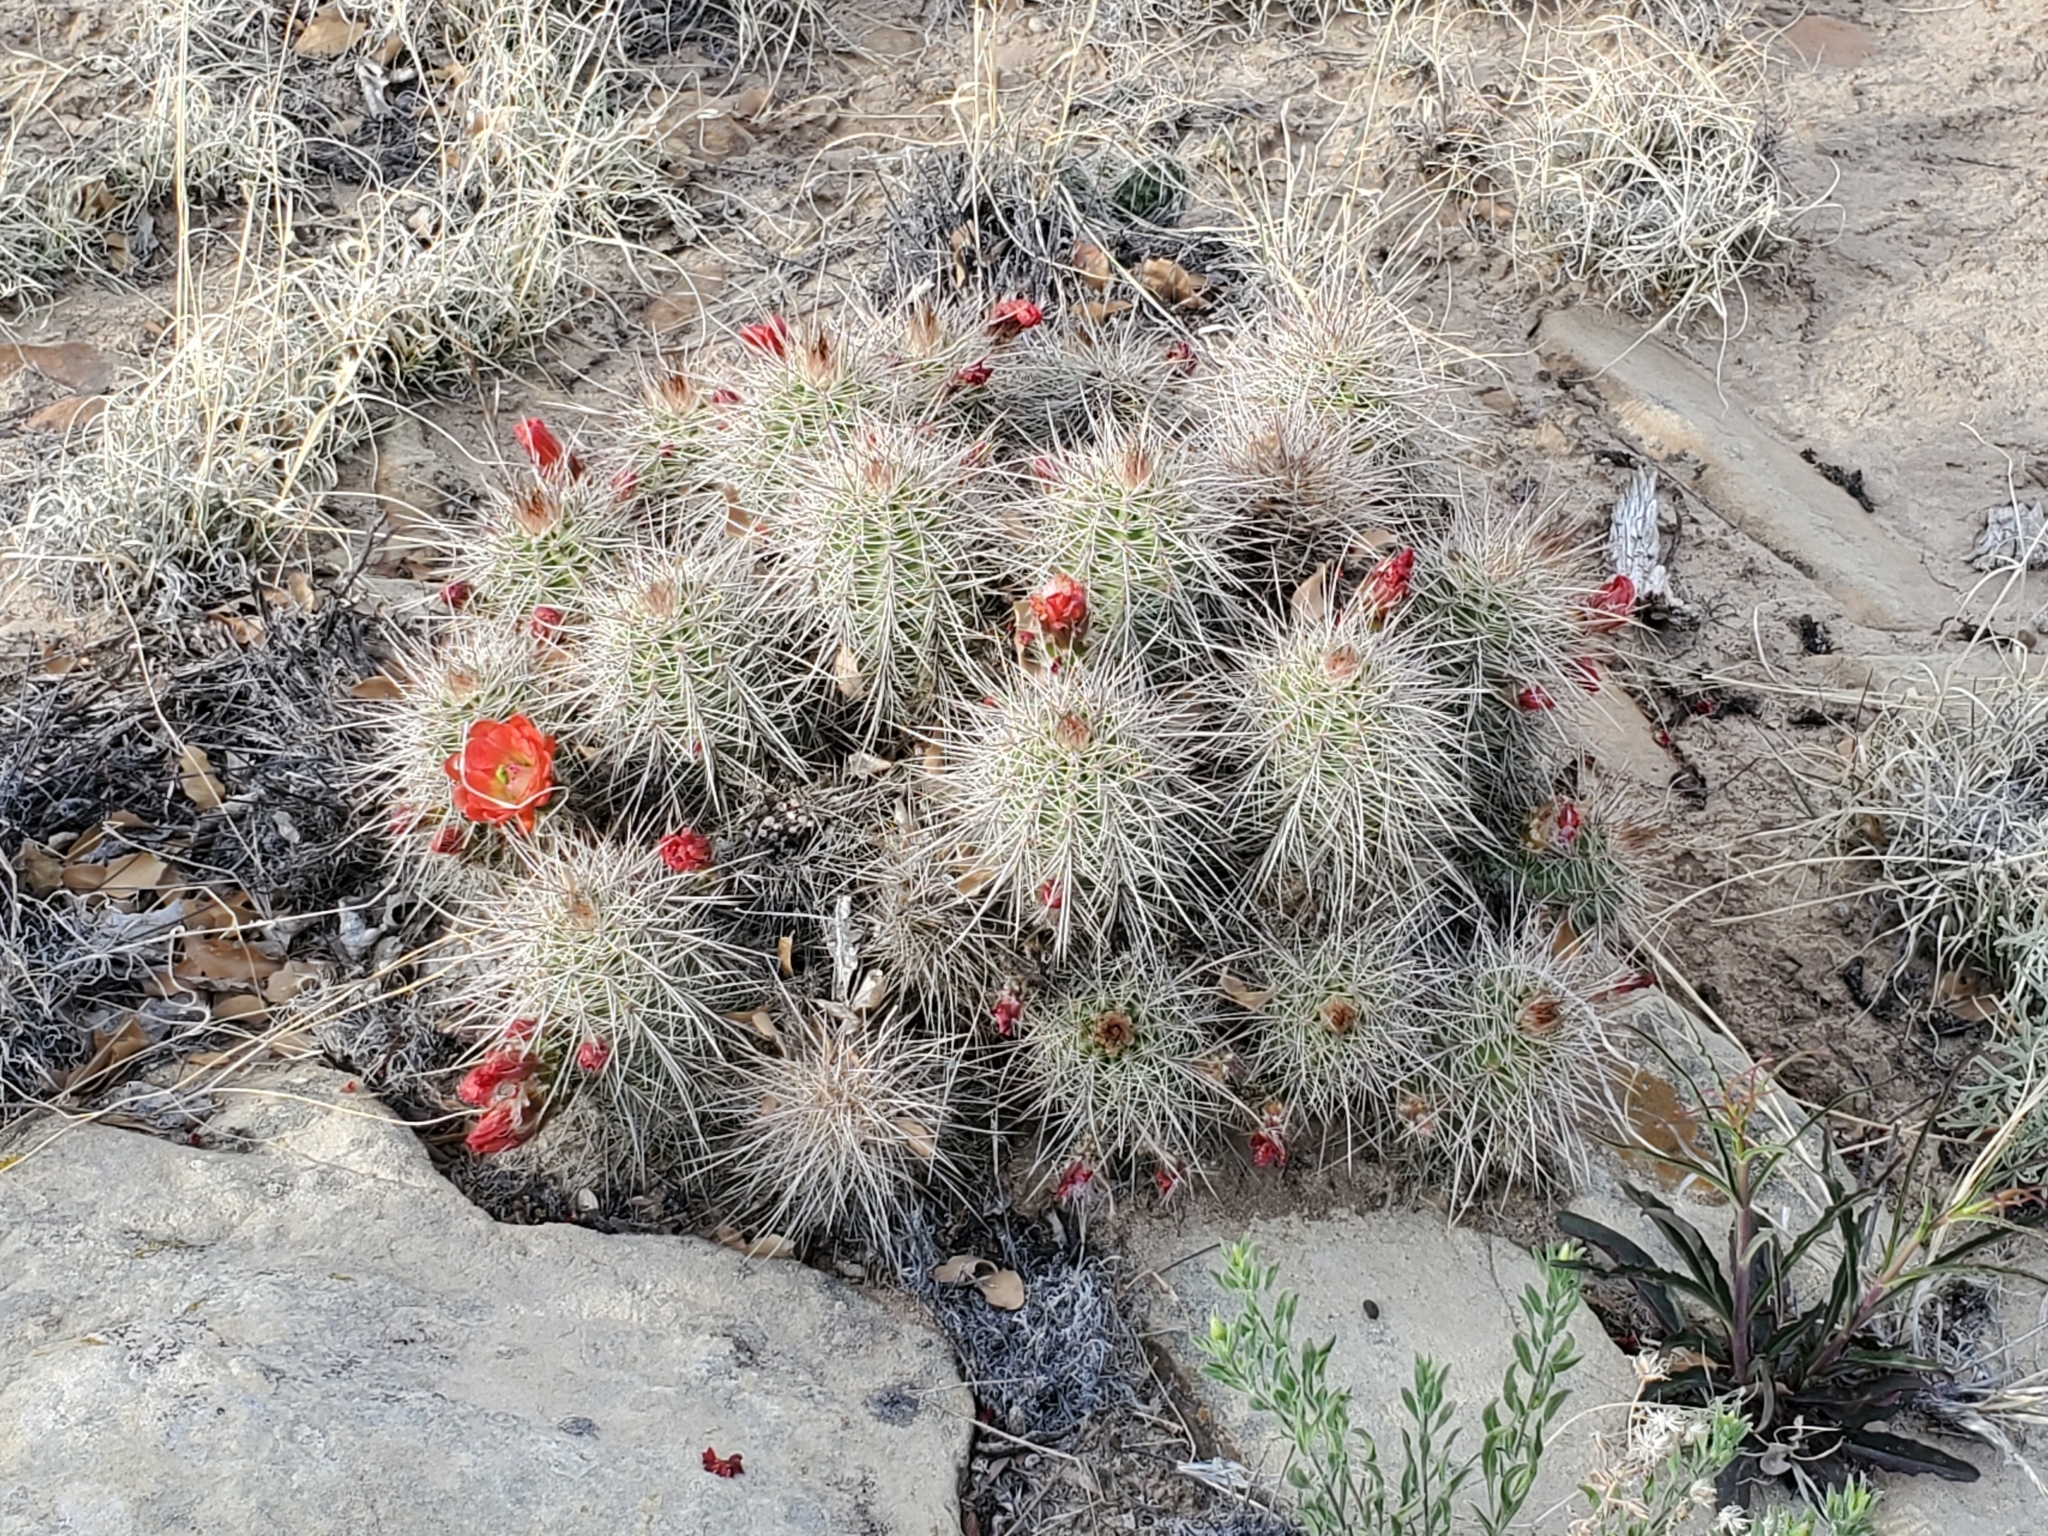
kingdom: Plantae
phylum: Tracheophyta
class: Magnoliopsida
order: Caryophyllales
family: Cactaceae
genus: Echinocereus
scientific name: Echinocereus coccineus
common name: Scarlet hedgehog cactus
